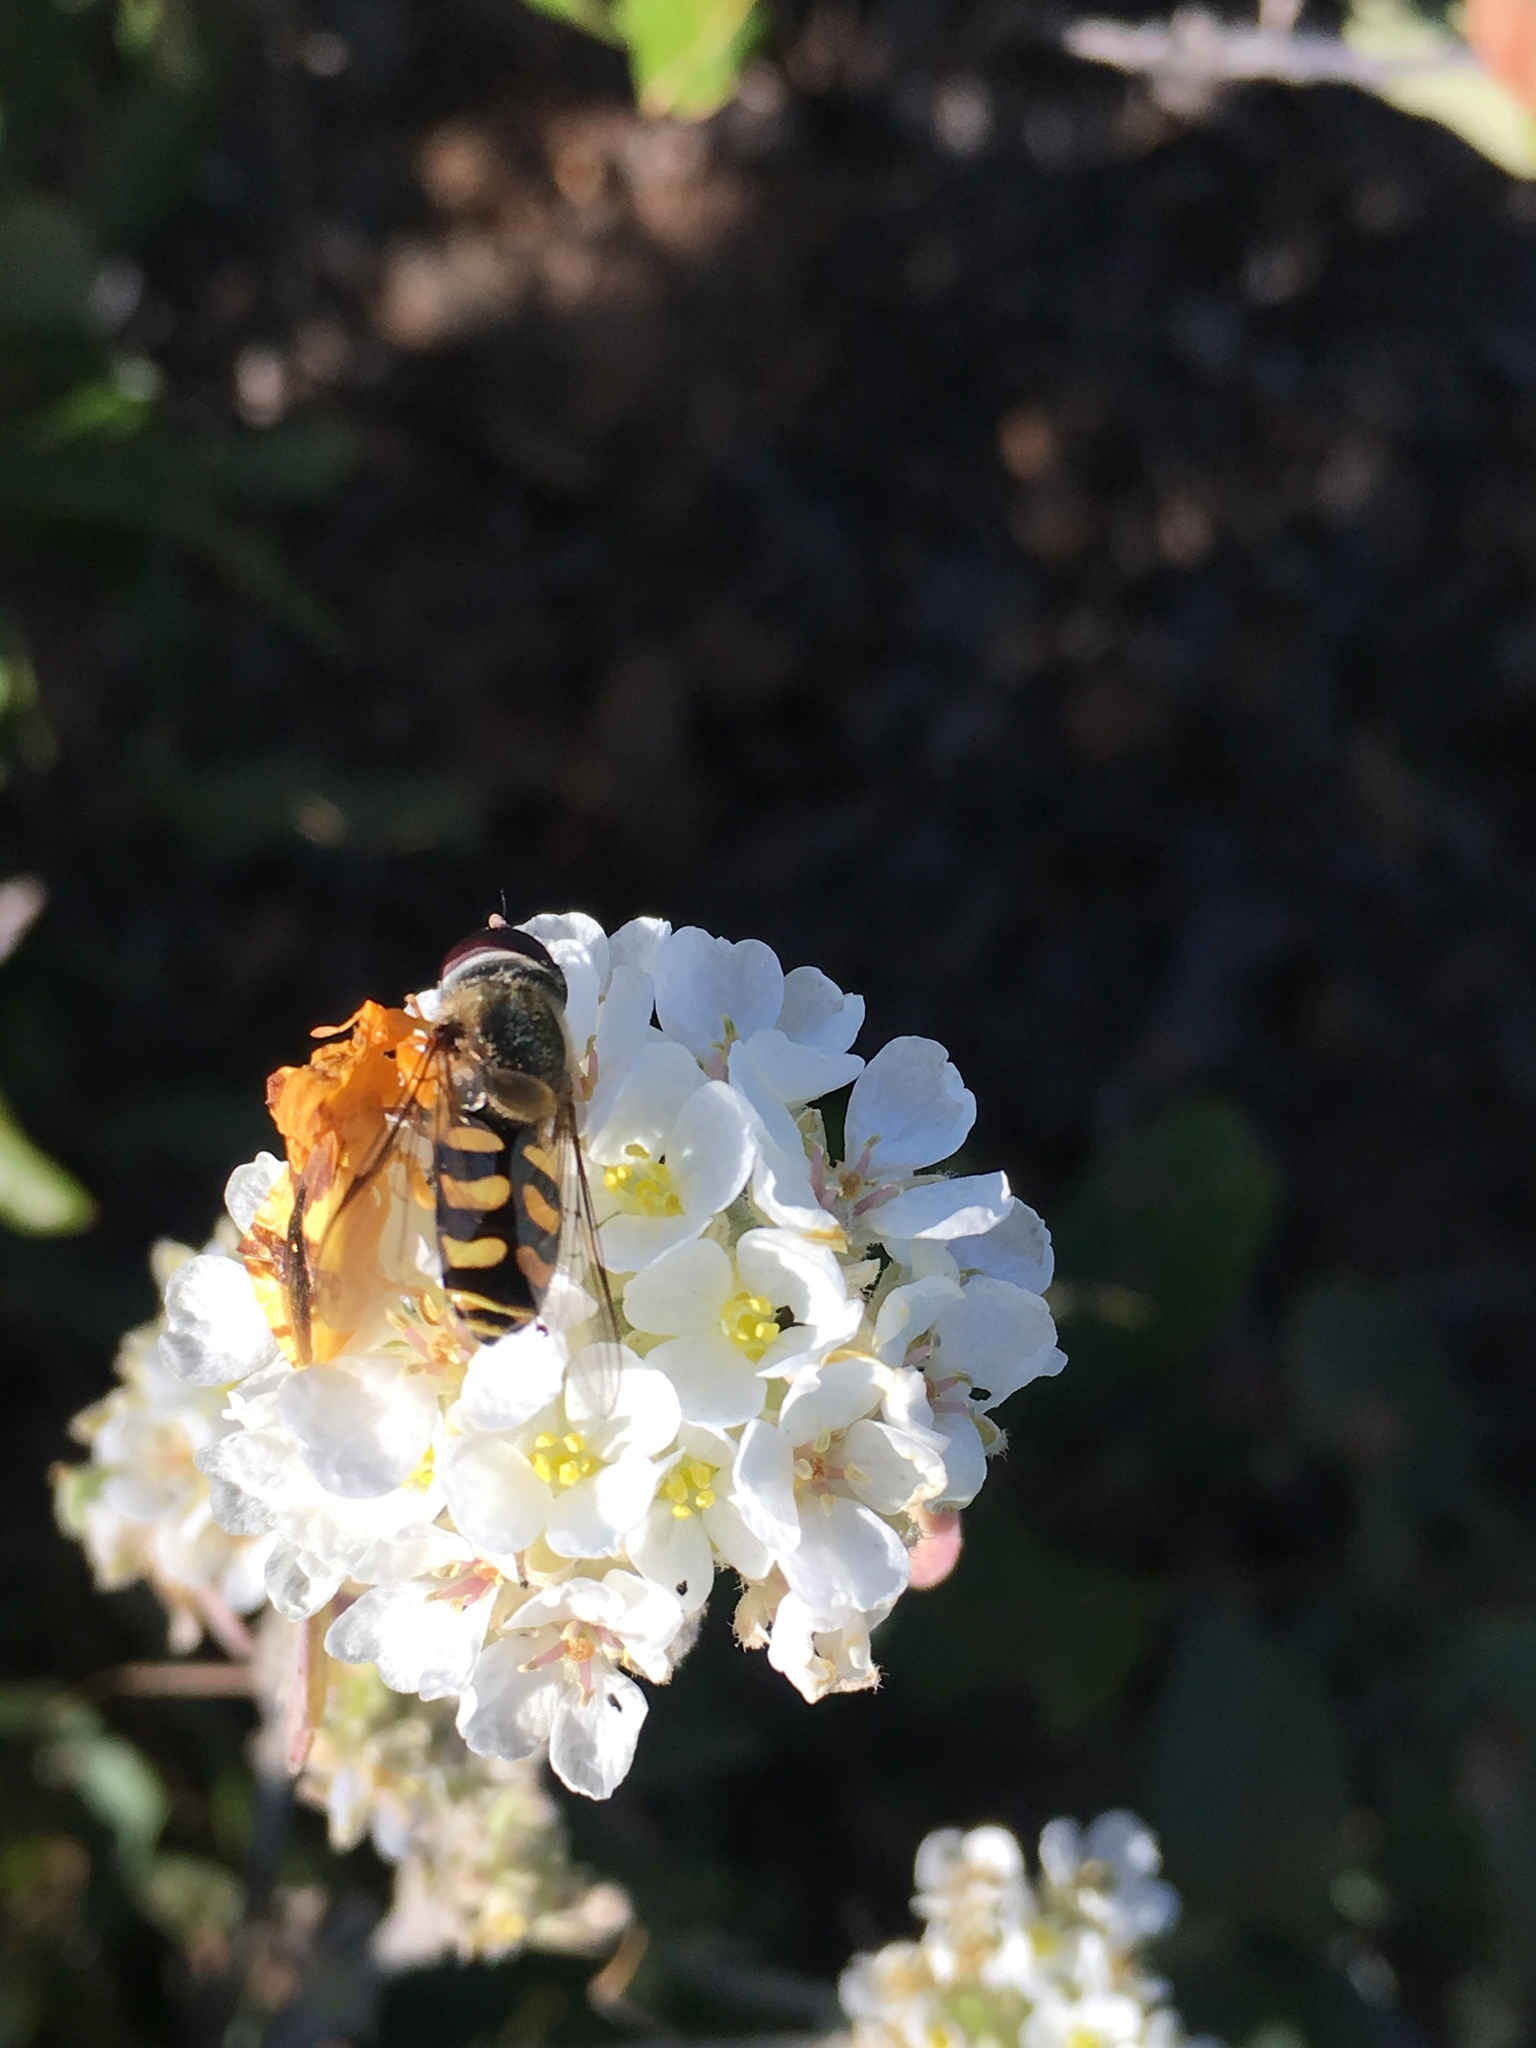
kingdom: Animalia
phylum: Arthropoda
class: Insecta
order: Diptera
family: Syrphidae
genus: Lapposyrphus
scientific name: Lapposyrphus lapponicus
